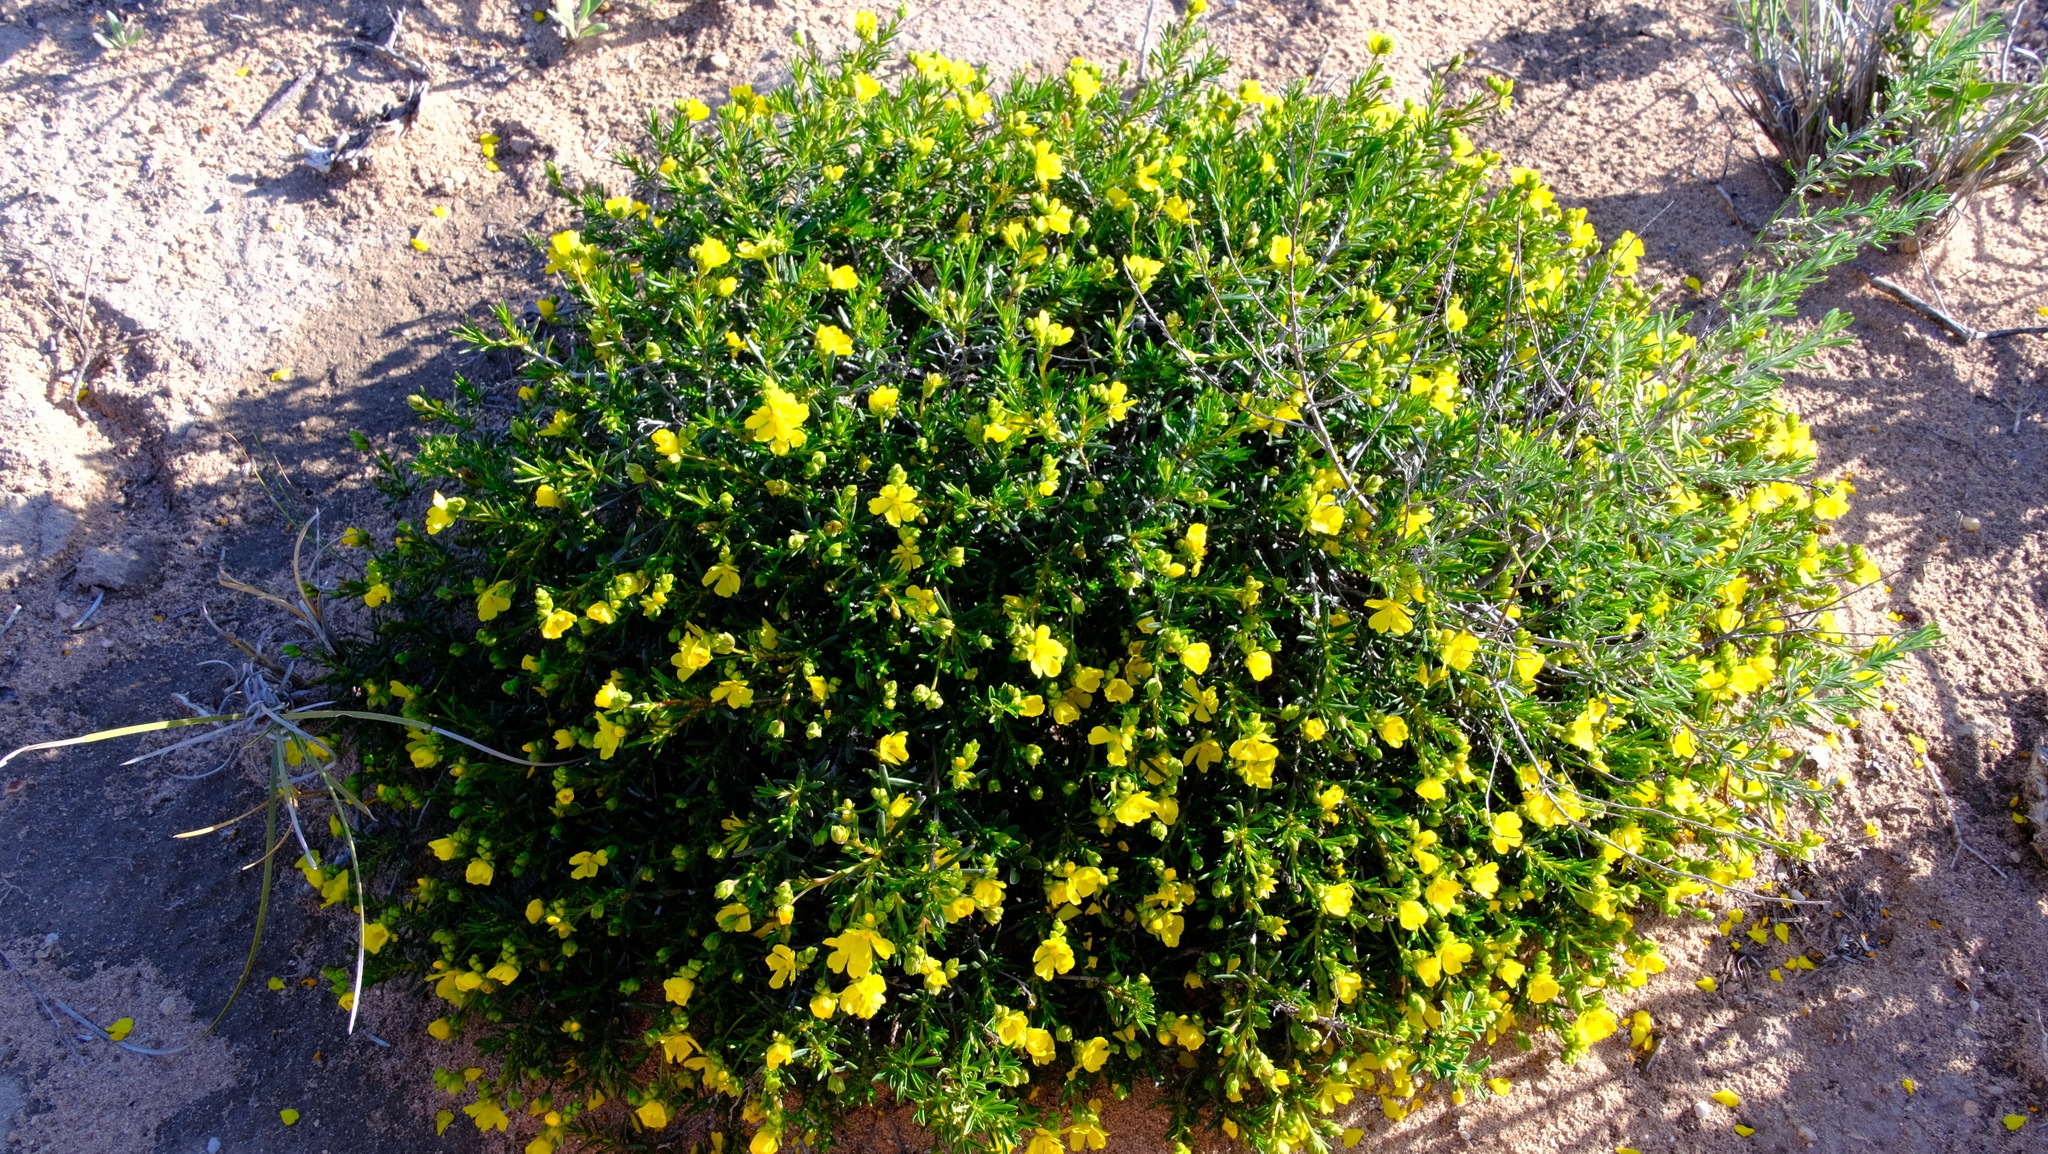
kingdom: Plantae
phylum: Tracheophyta
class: Magnoliopsida
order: Dilleniales
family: Dilleniaceae
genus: Hibbertia
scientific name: Hibbertia spicata
